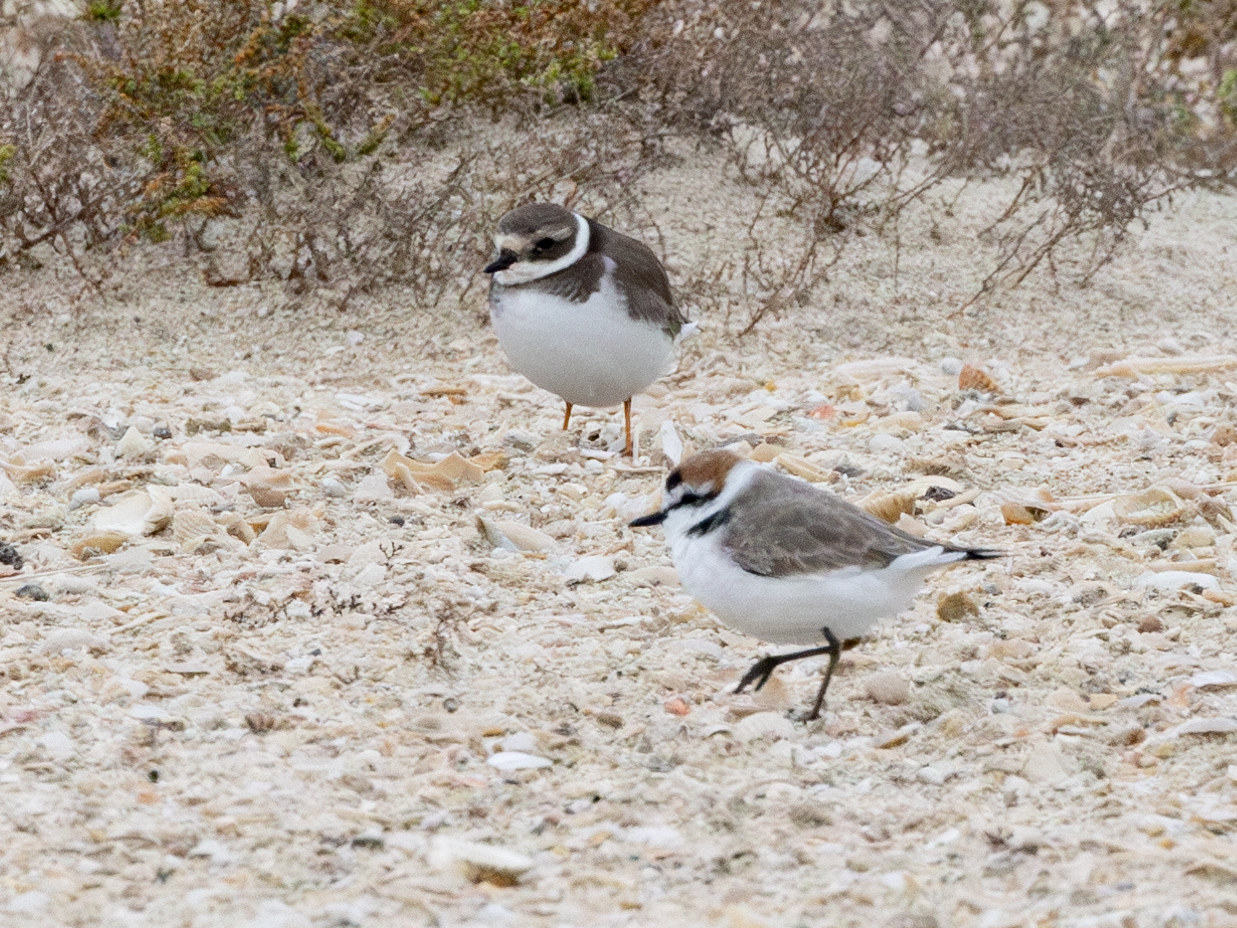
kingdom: Animalia
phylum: Chordata
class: Aves
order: Charadriiformes
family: Charadriidae
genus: Charadrius
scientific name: Charadrius alexandrinus
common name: Kentish plover
